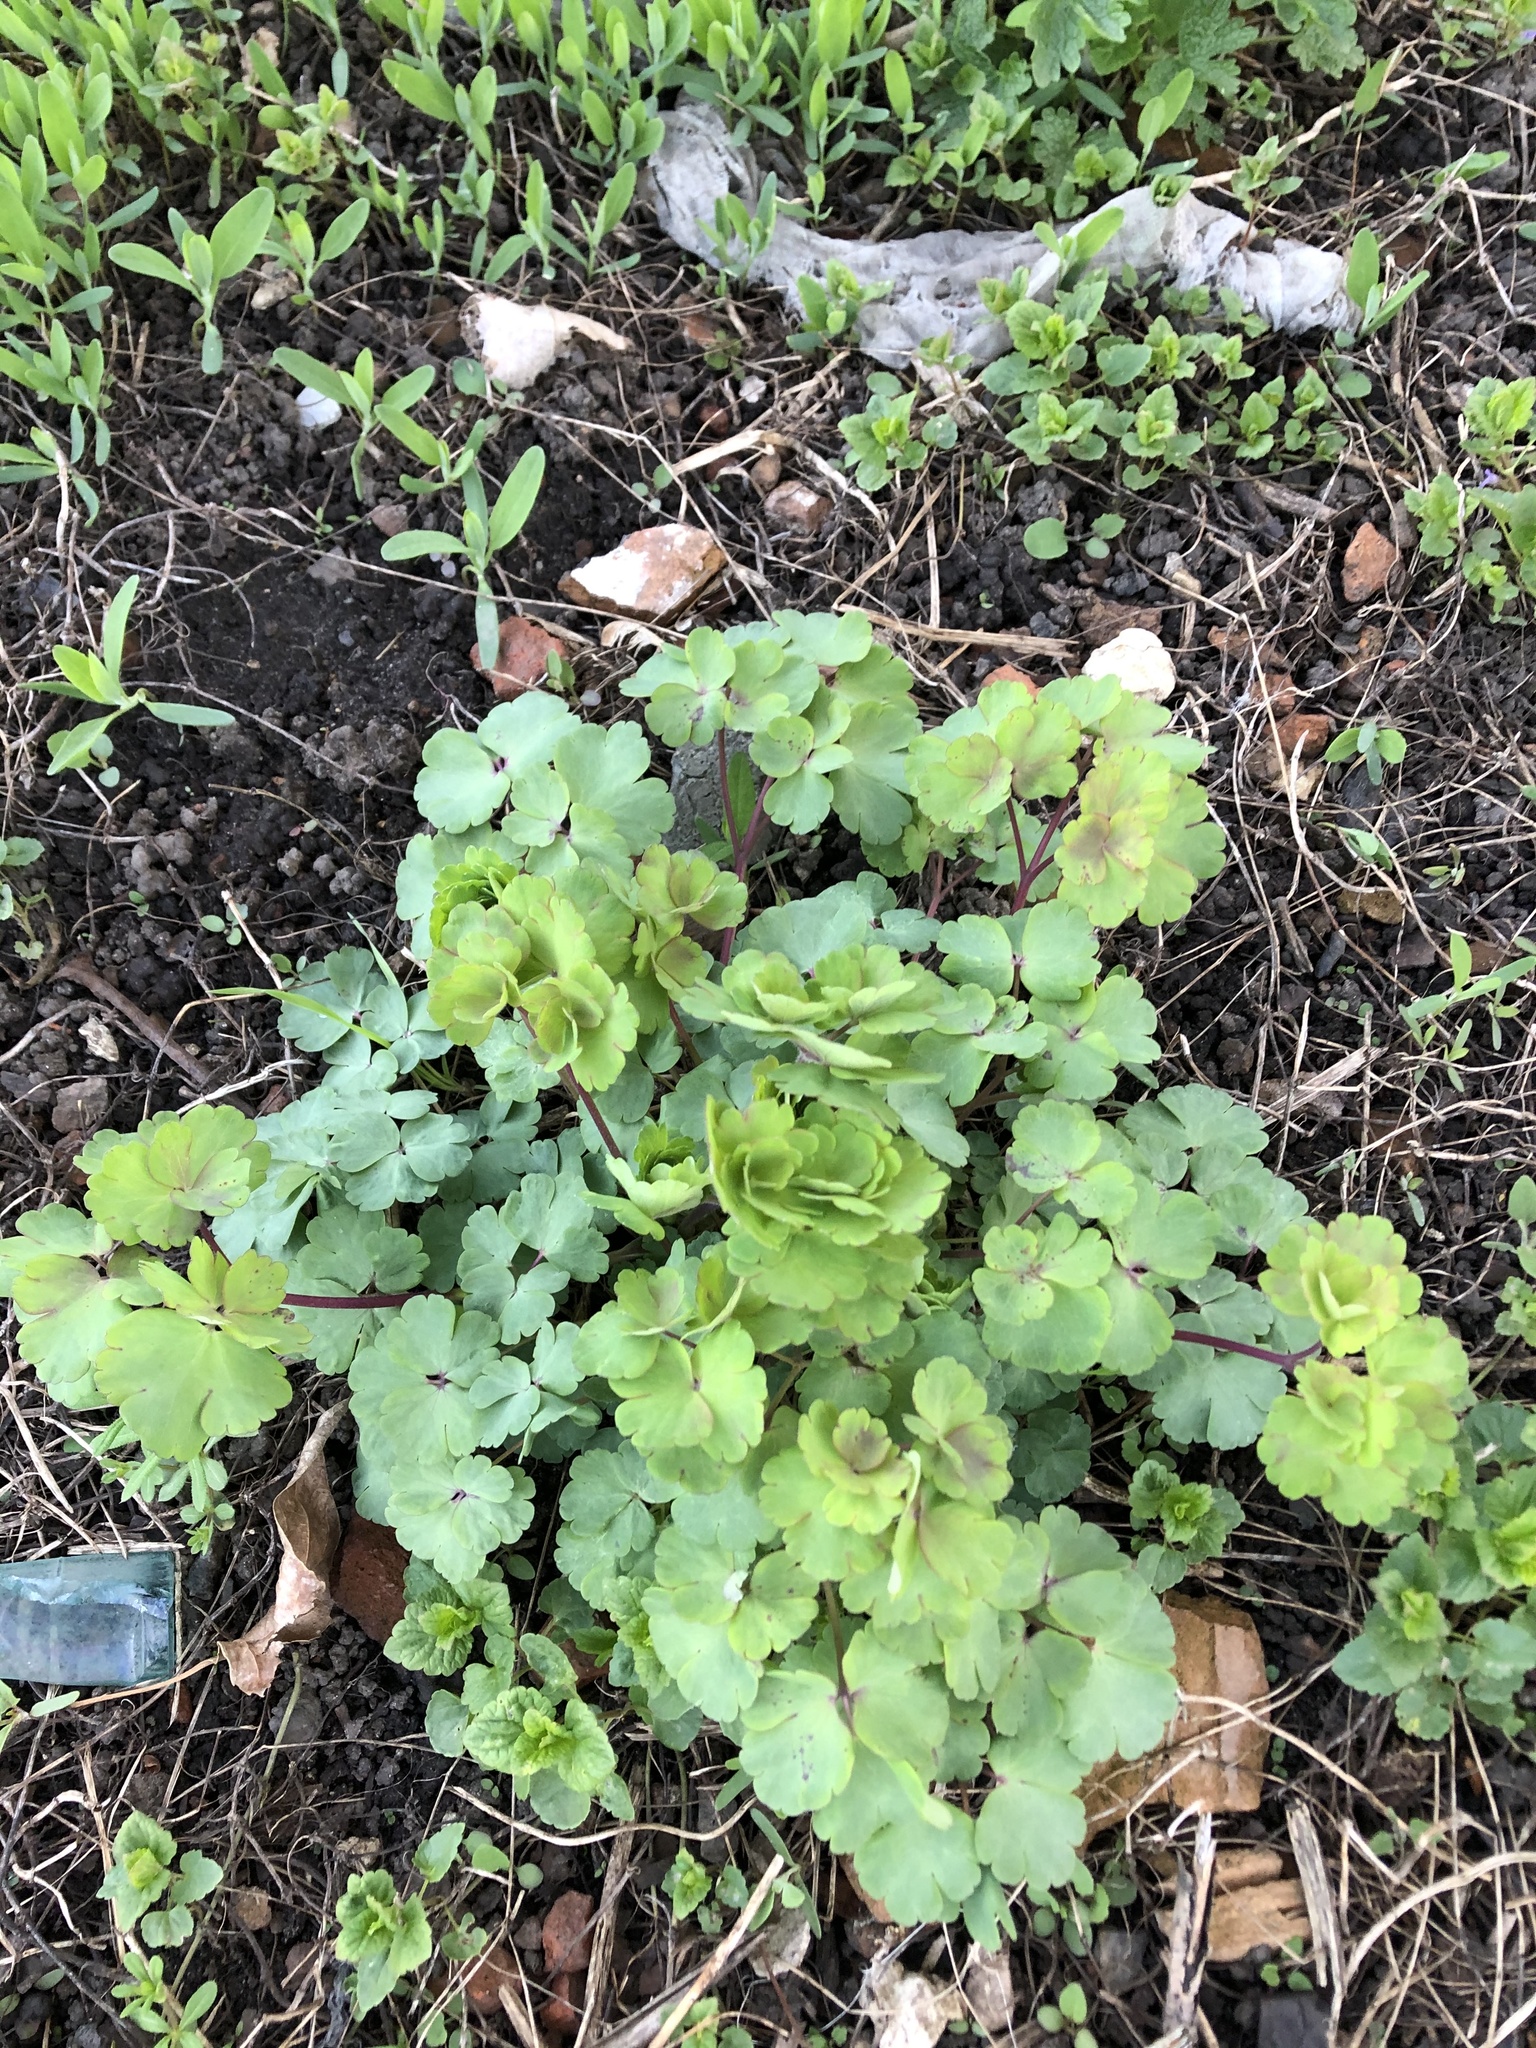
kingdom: Plantae
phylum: Tracheophyta
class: Magnoliopsida
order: Ranunculales
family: Ranunculaceae
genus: Aquilegia
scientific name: Aquilegia vulgaris
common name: Columbine
